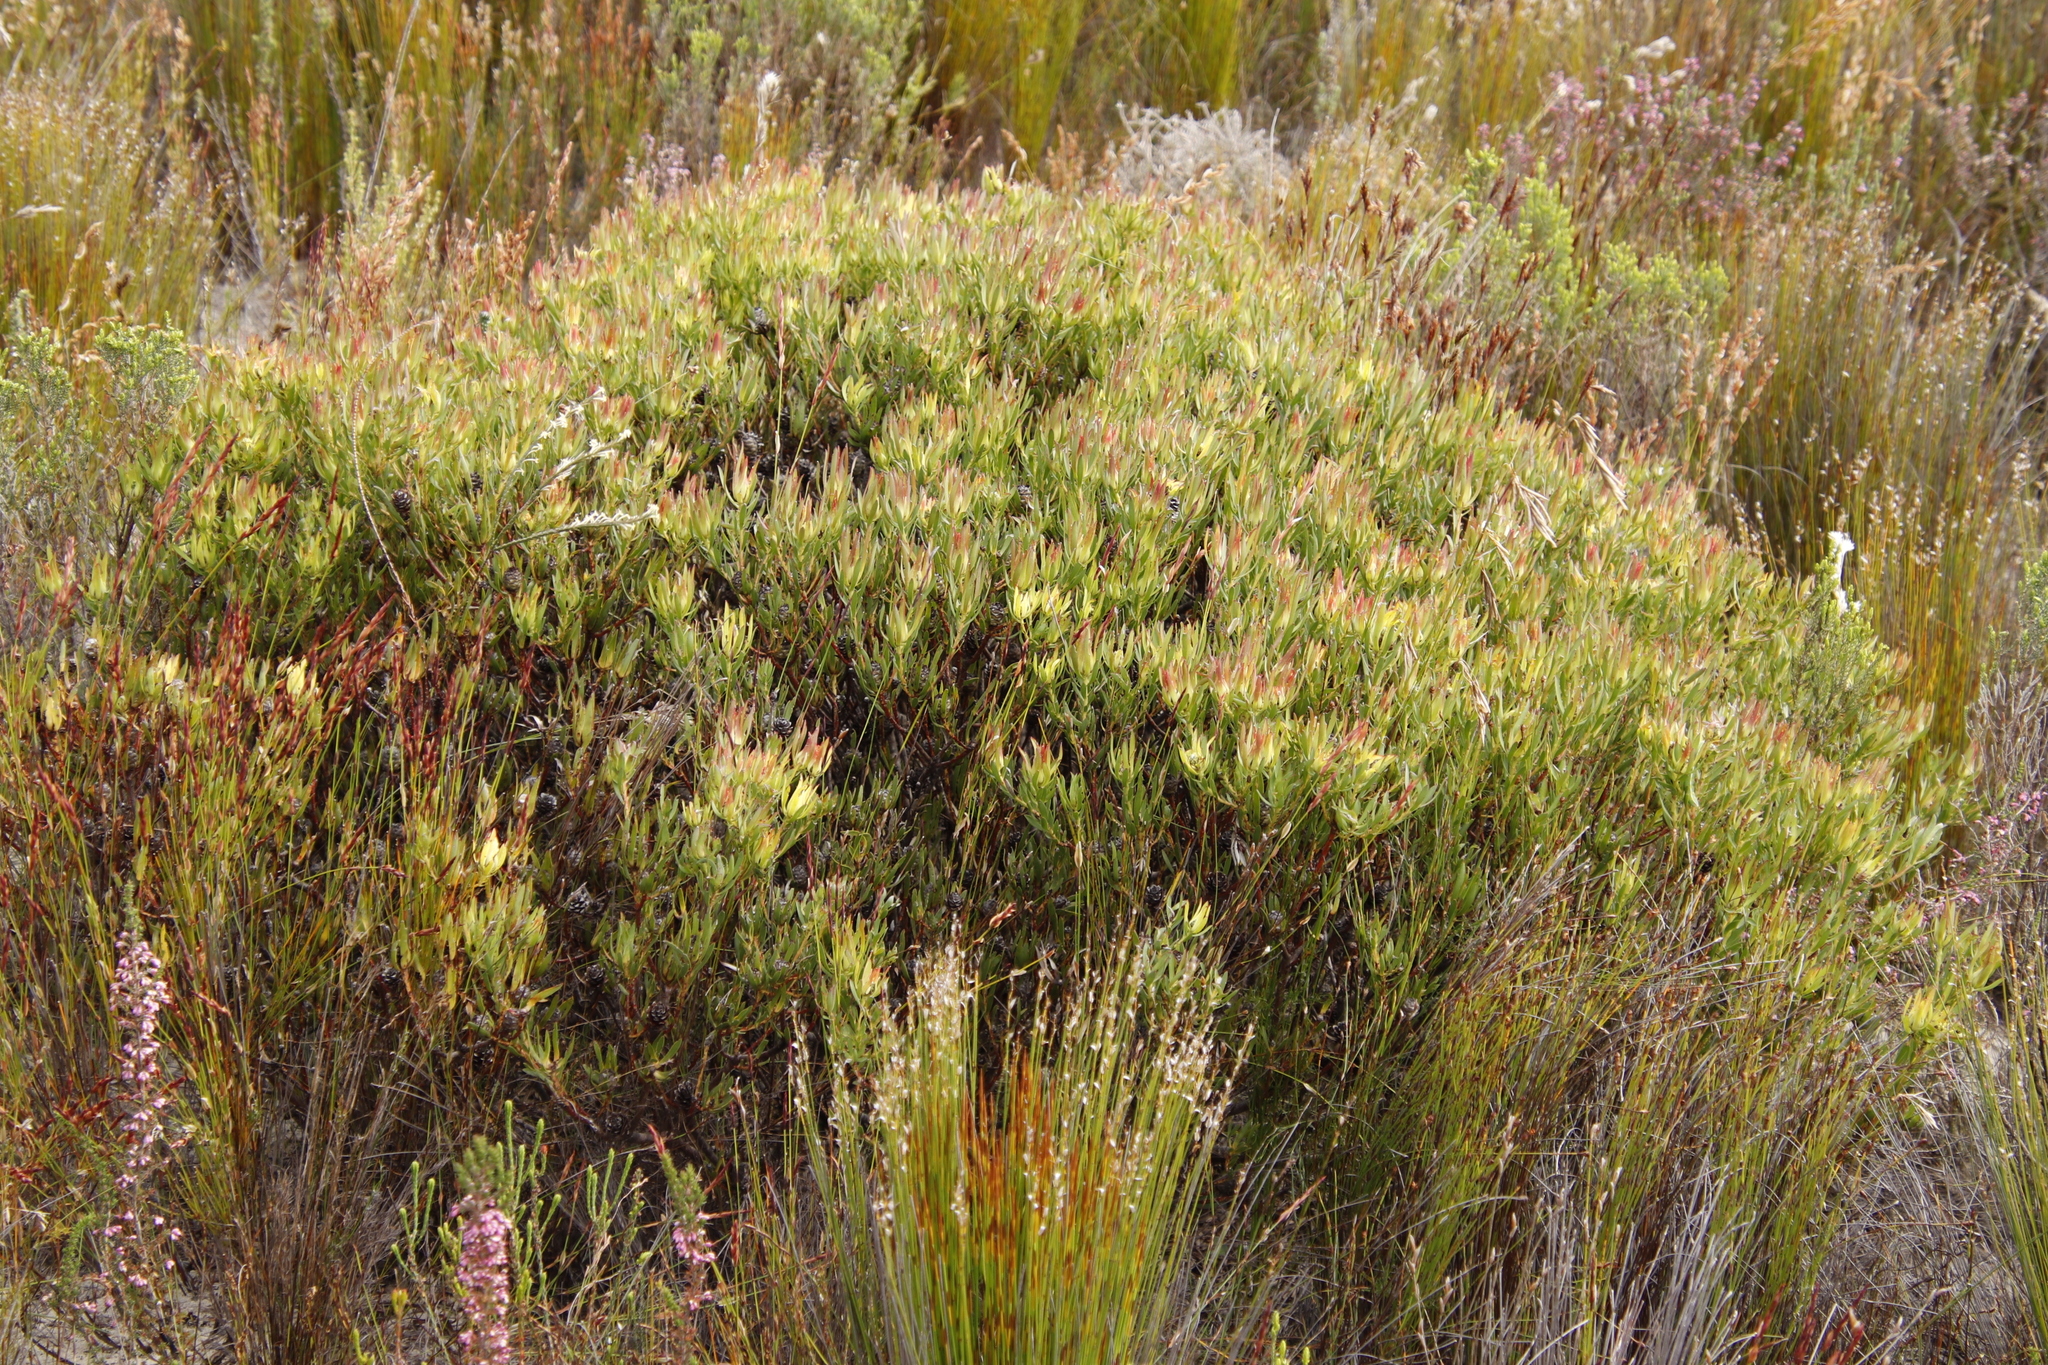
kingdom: Plantae
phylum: Tracheophyta
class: Magnoliopsida
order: Proteales
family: Proteaceae
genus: Leucadendron
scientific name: Leucadendron salignum
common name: Common sunshine conebush
